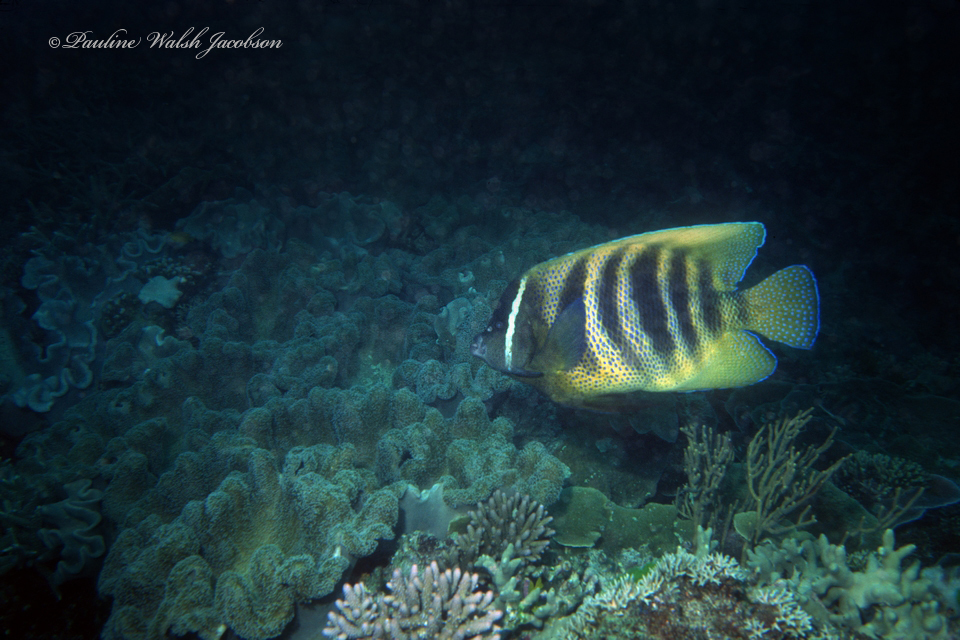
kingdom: Animalia
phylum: Chordata
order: Perciformes
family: Pomacanthidae
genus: Pomacanthus
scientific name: Pomacanthus sexstriatus
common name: Six-banded angelfish
